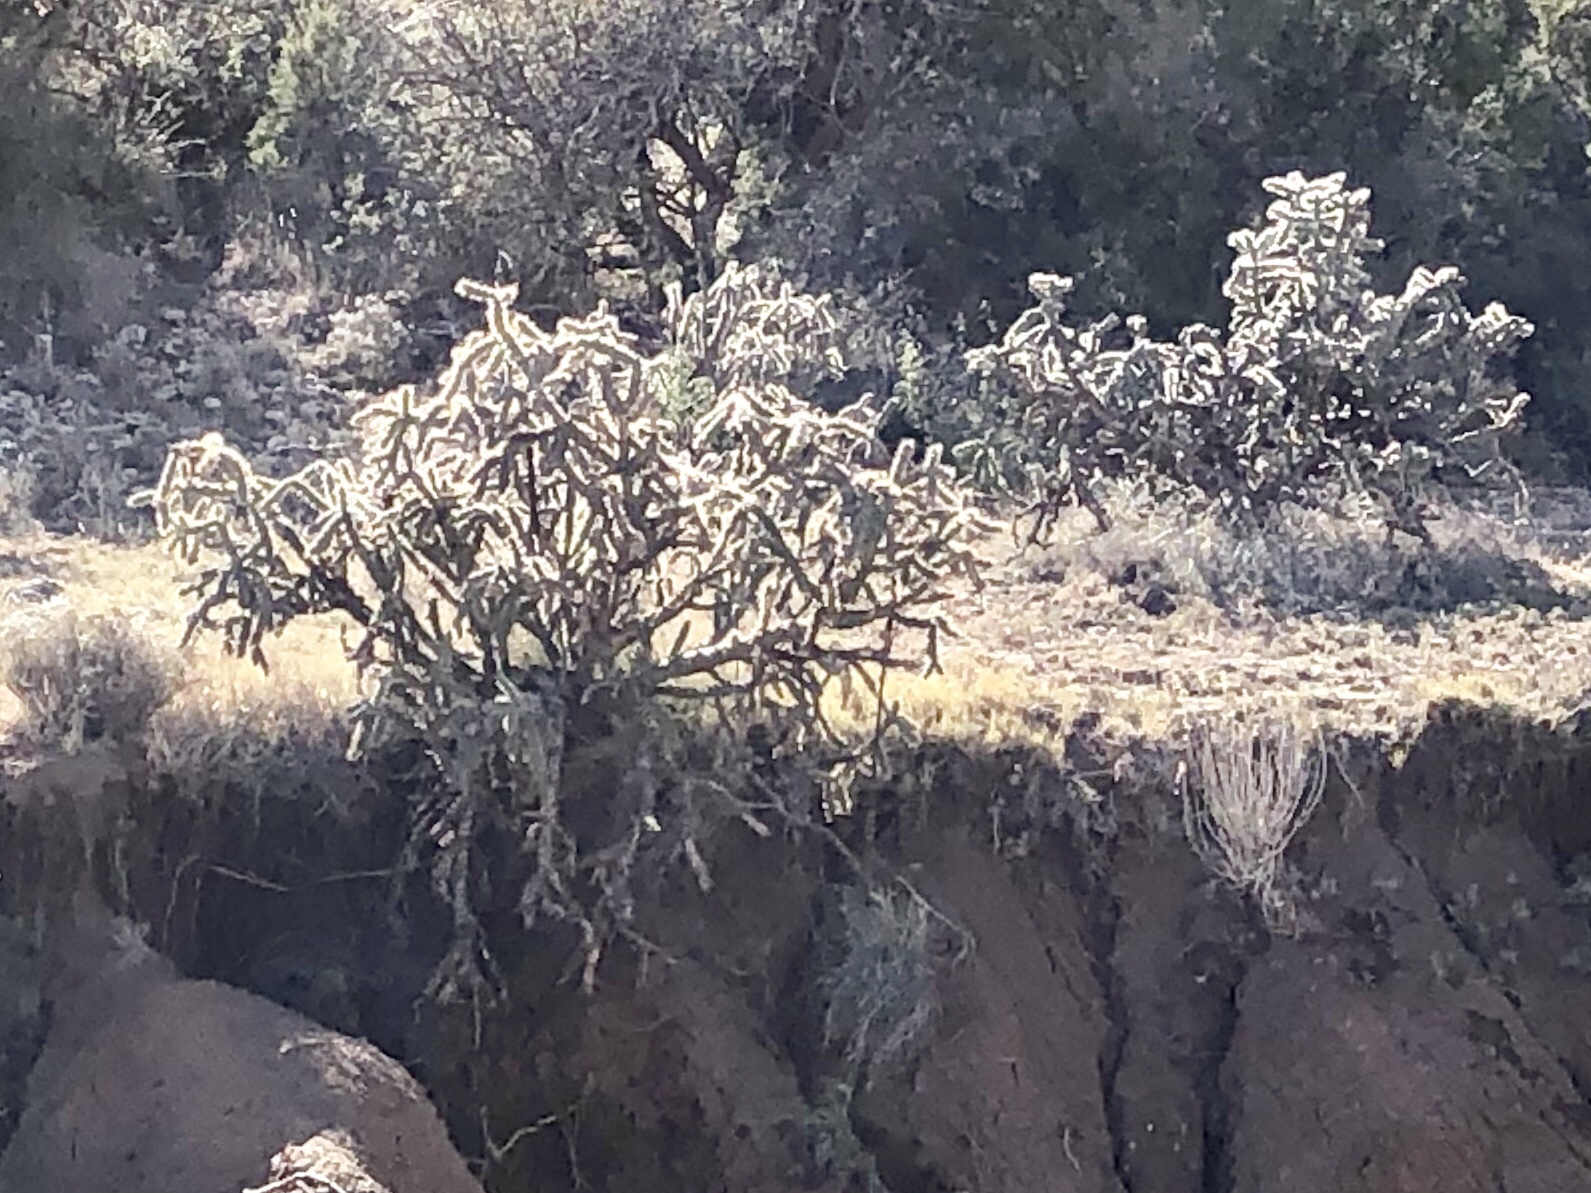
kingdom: Plantae
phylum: Tracheophyta
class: Magnoliopsida
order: Caryophyllales
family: Cactaceae
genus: Cylindropuntia
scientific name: Cylindropuntia imbricata
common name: Candelabrum cactus
